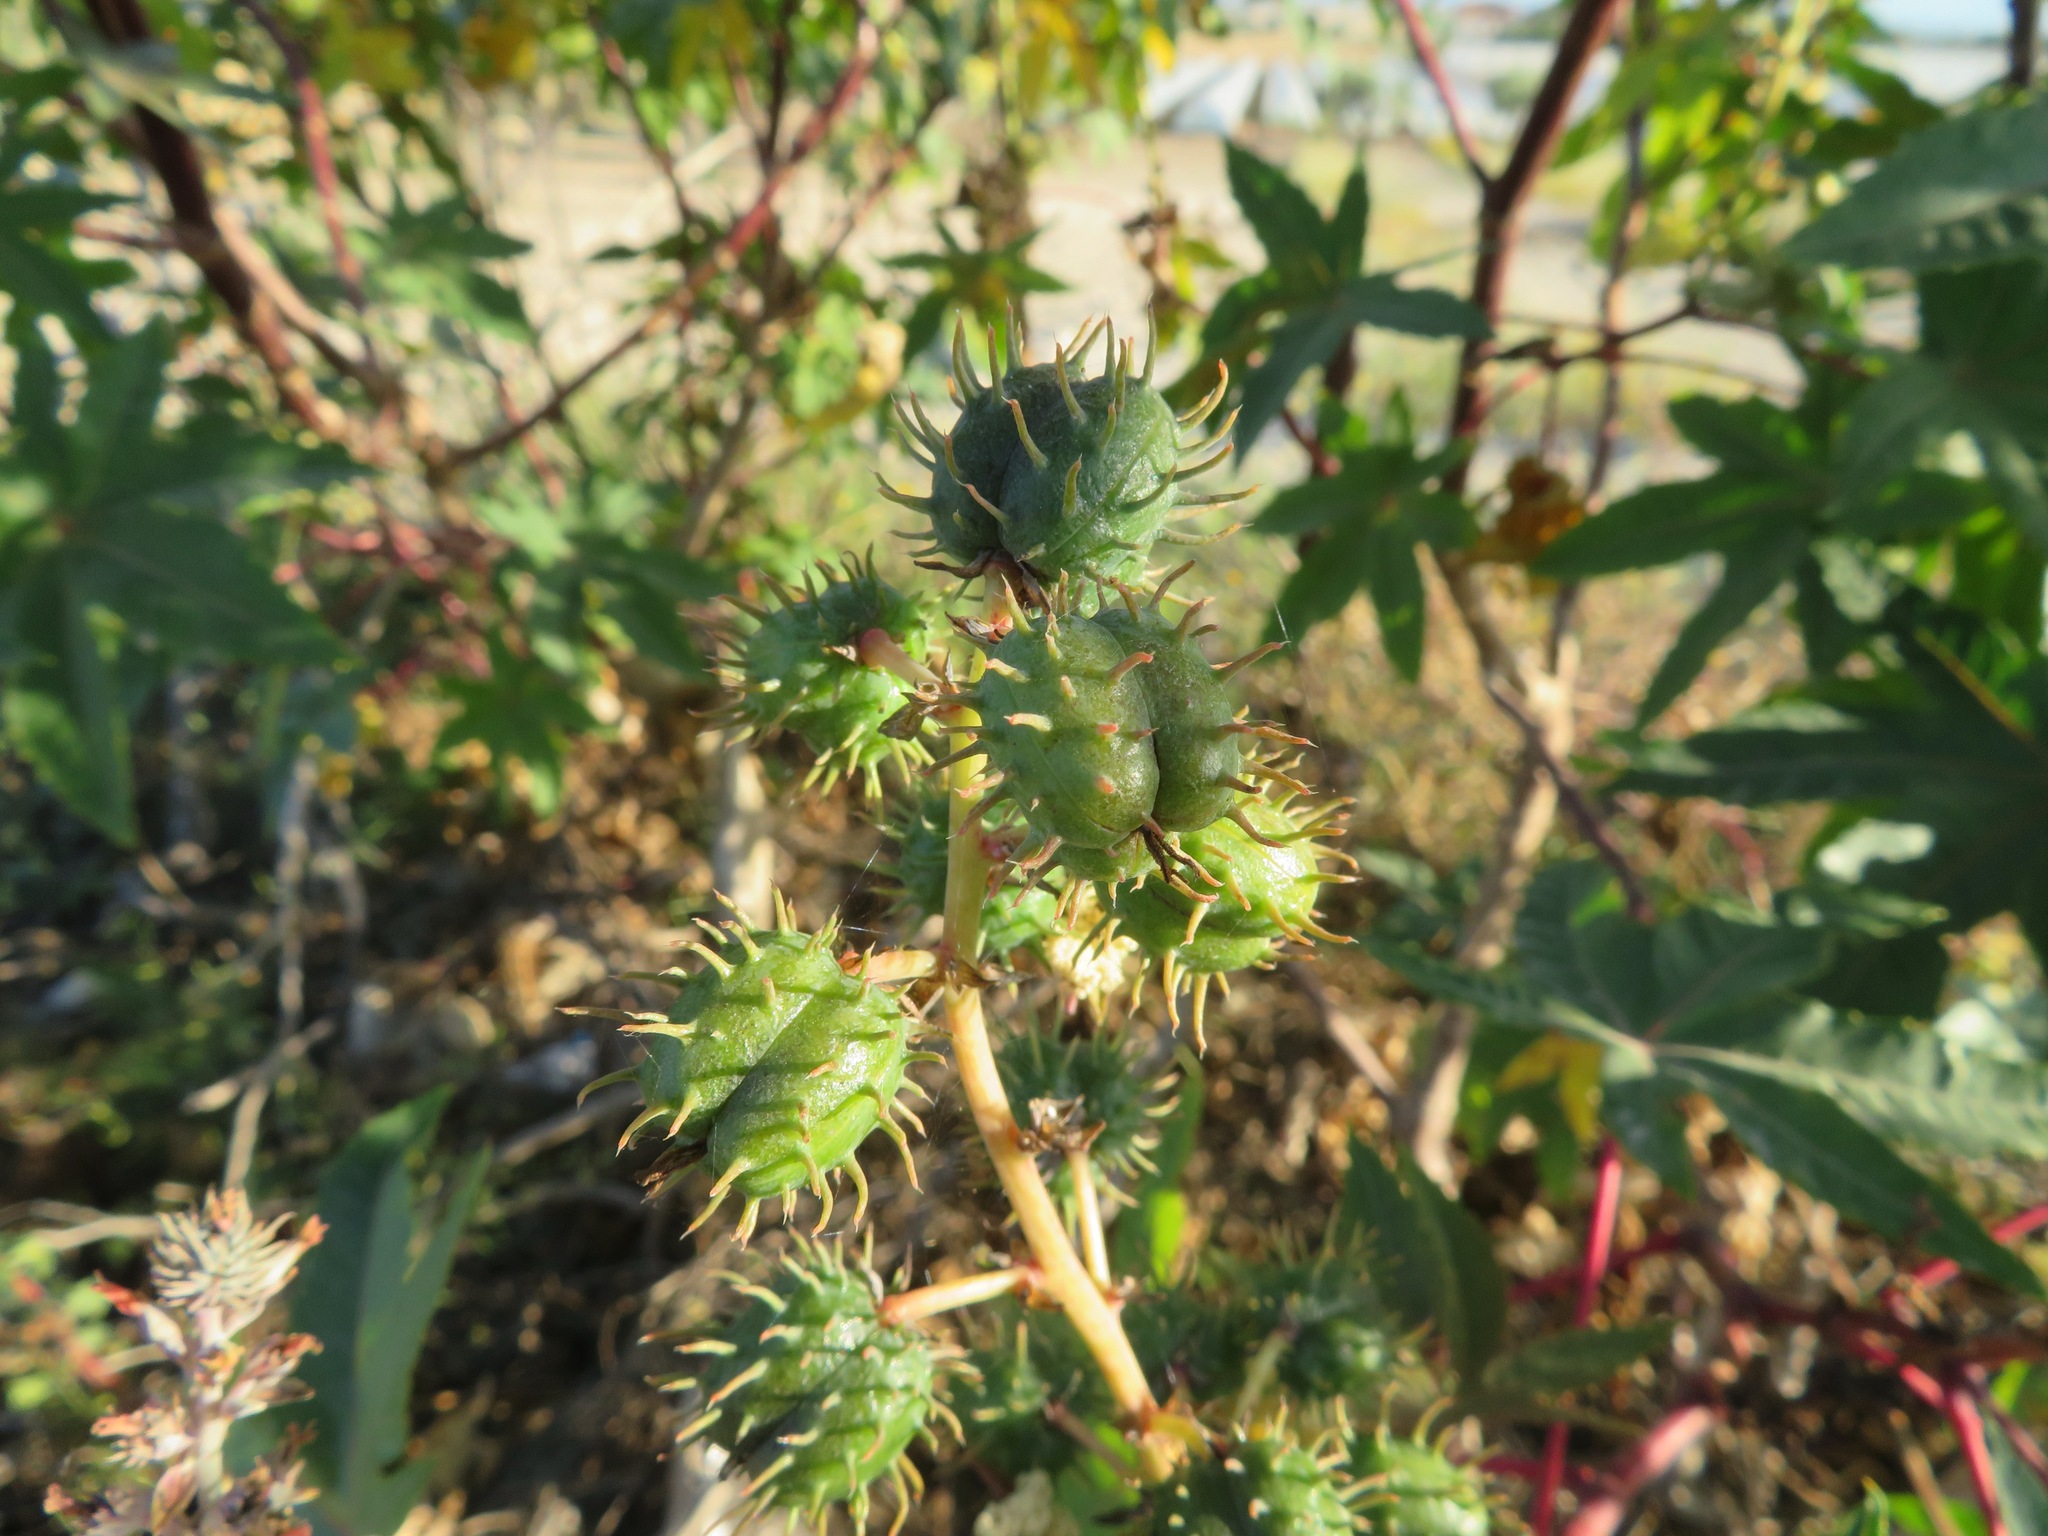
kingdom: Plantae
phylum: Tracheophyta
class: Magnoliopsida
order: Malpighiales
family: Euphorbiaceae
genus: Ricinus
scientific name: Ricinus communis
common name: Castor-oil-plant
